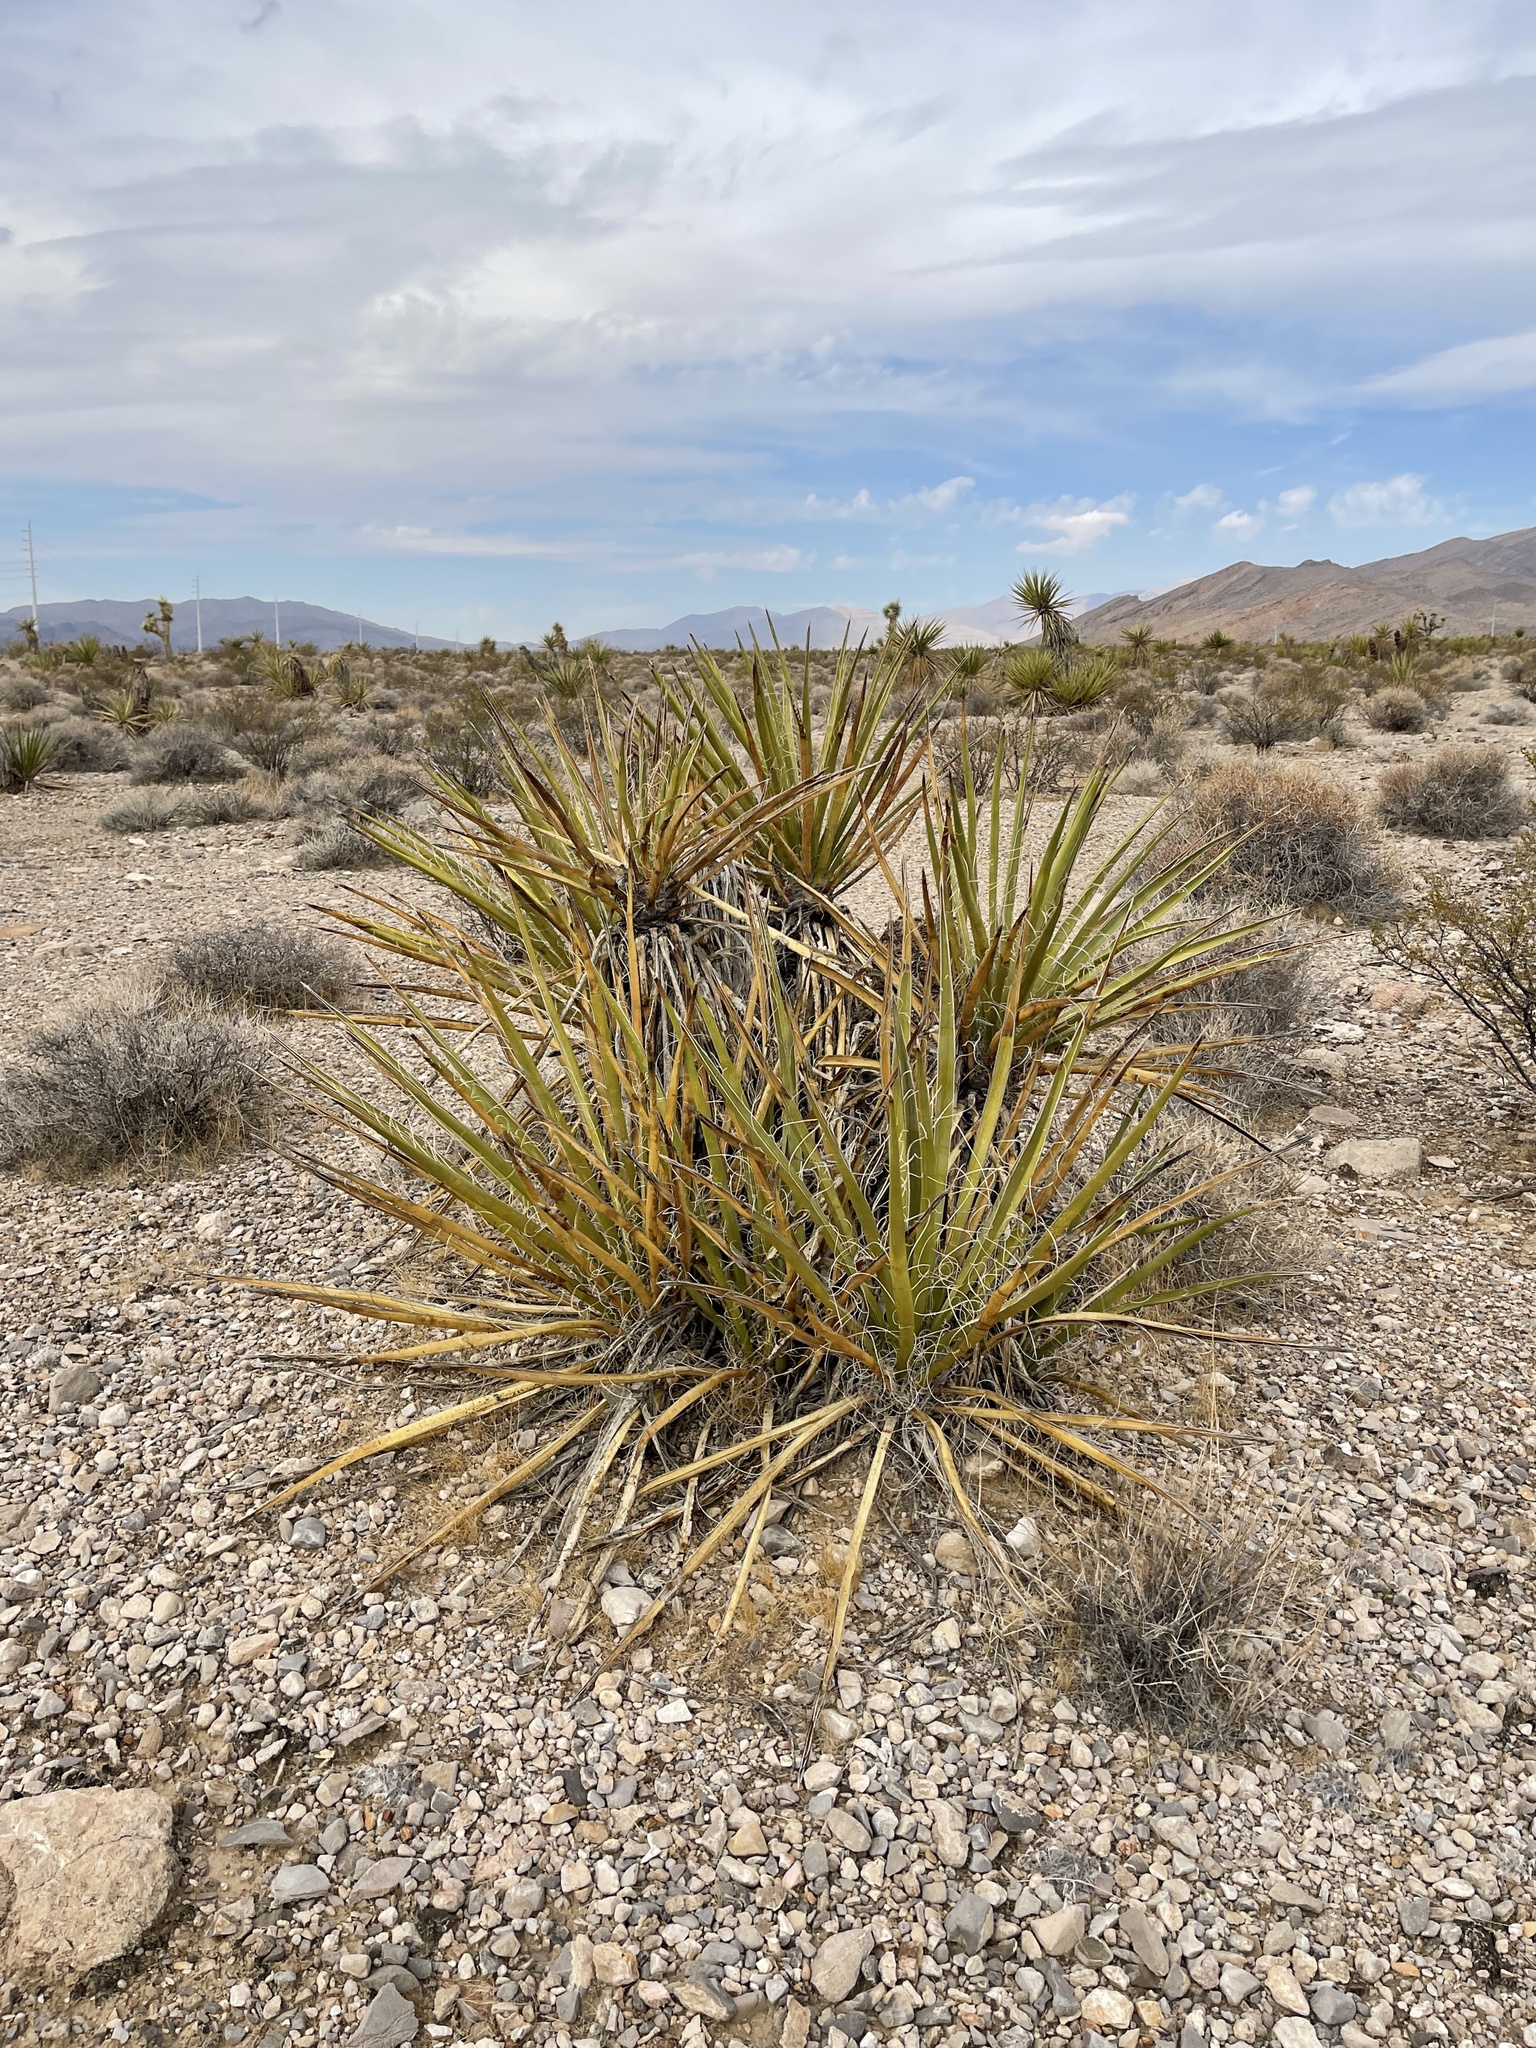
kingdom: Plantae
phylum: Tracheophyta
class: Liliopsida
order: Asparagales
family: Asparagaceae
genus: Yucca
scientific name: Yucca baccata
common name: Banana yucca
